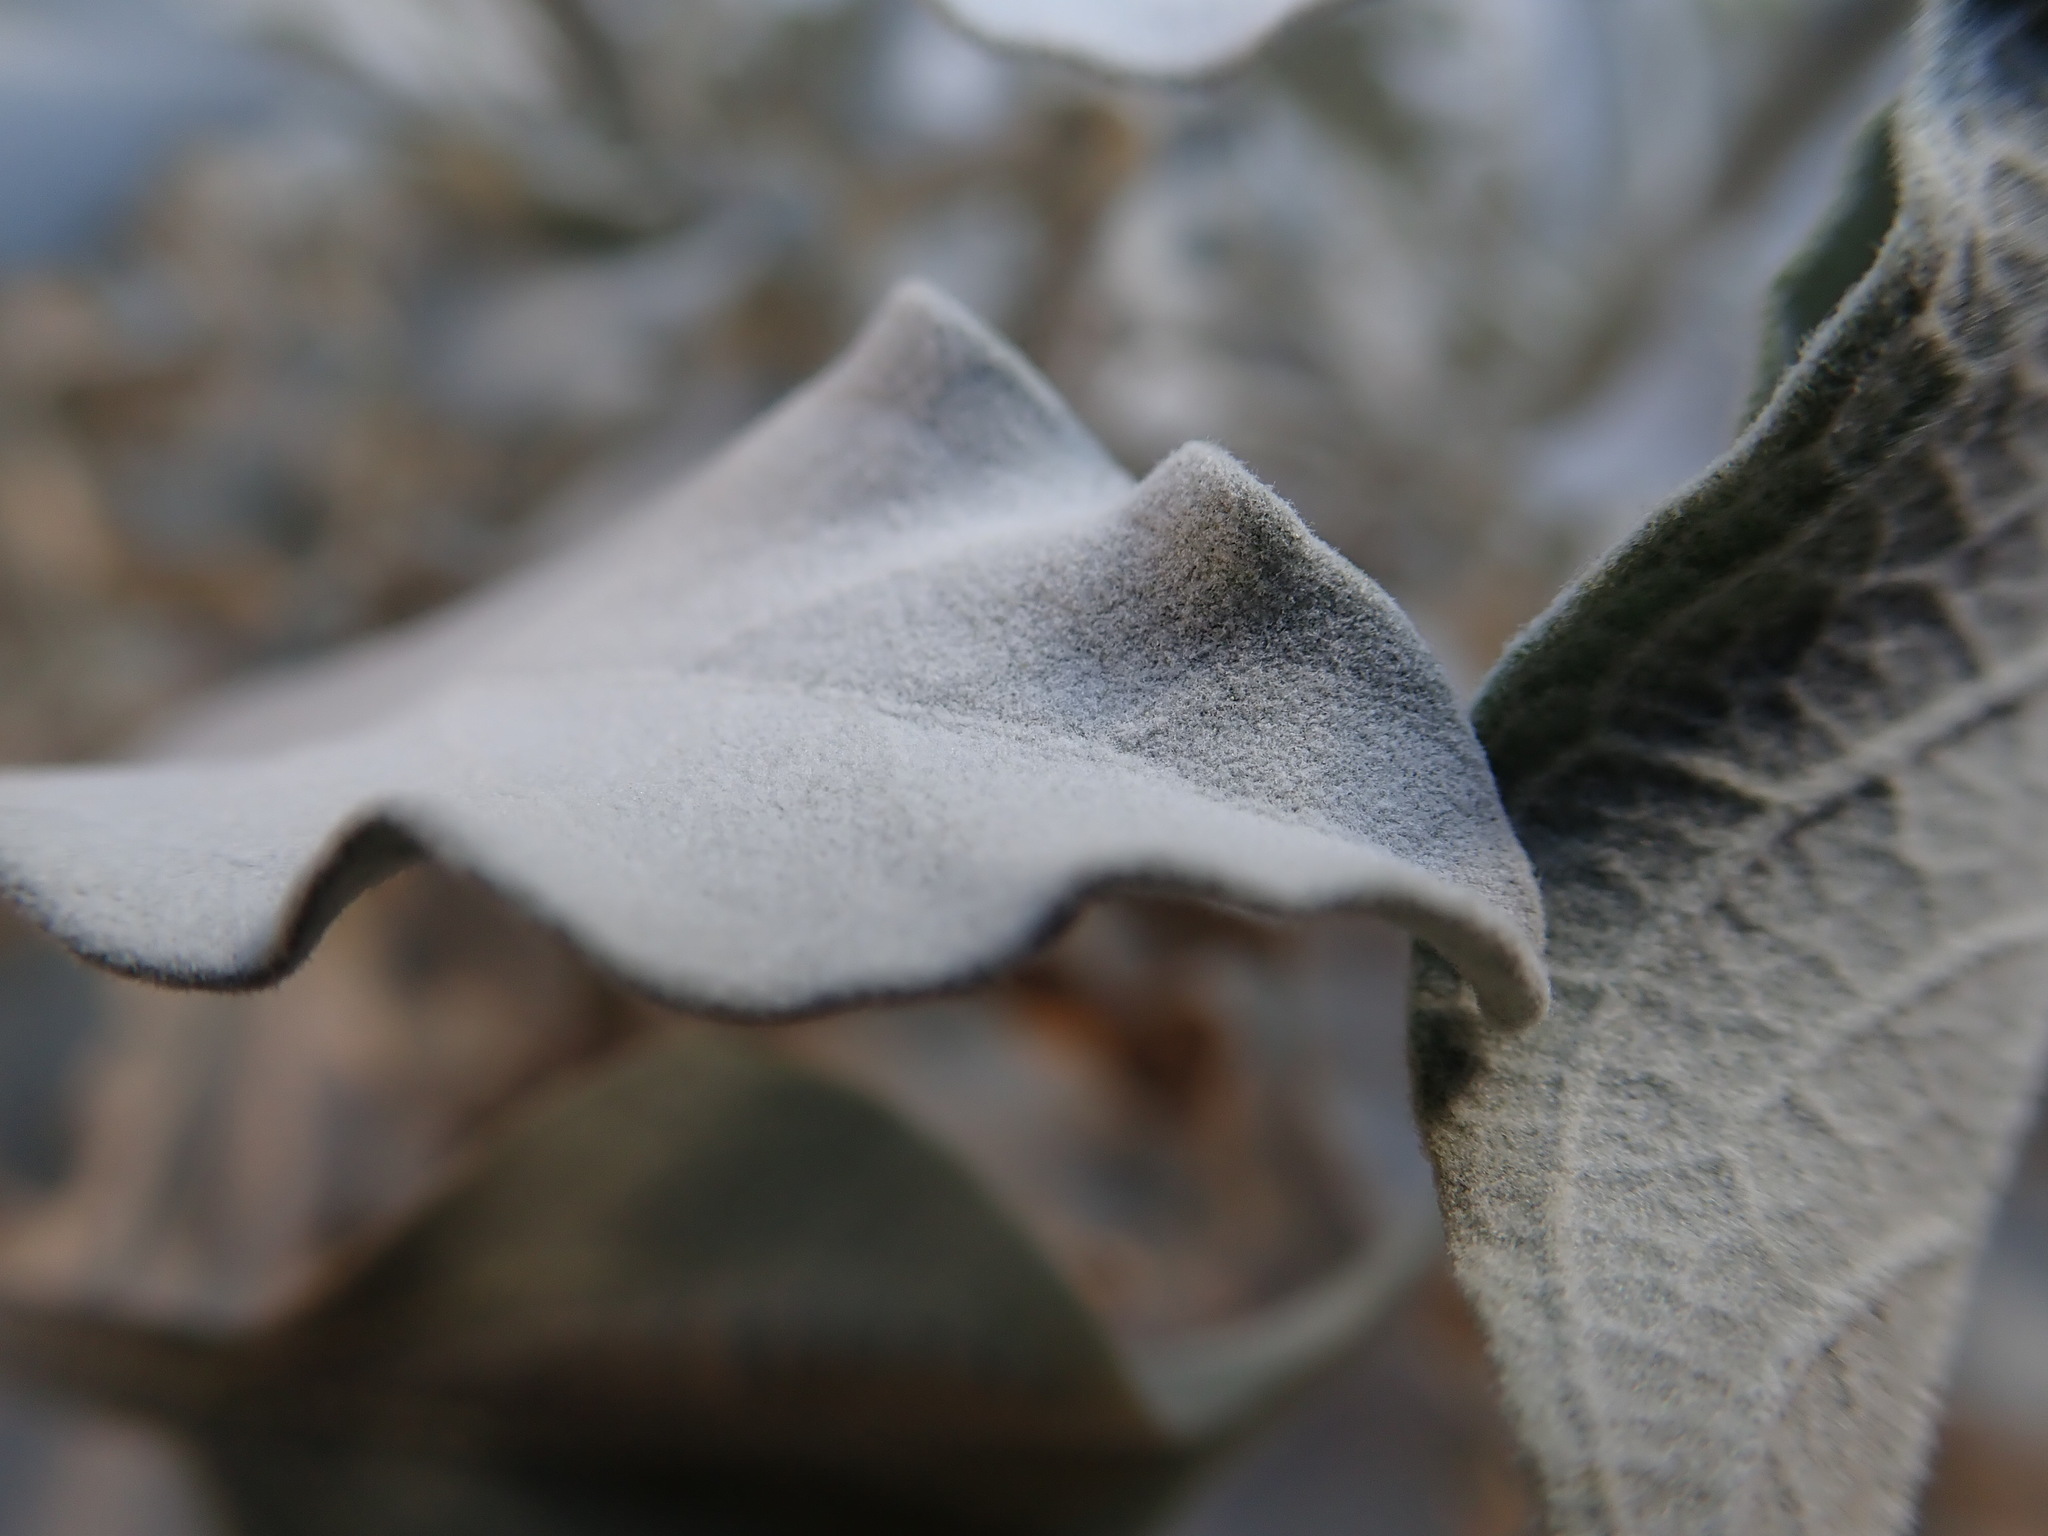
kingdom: Plantae
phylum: Tracheophyta
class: Magnoliopsida
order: Asterales
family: Asteraceae
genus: Encelia
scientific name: Encelia farinosa
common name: Brittlebush
